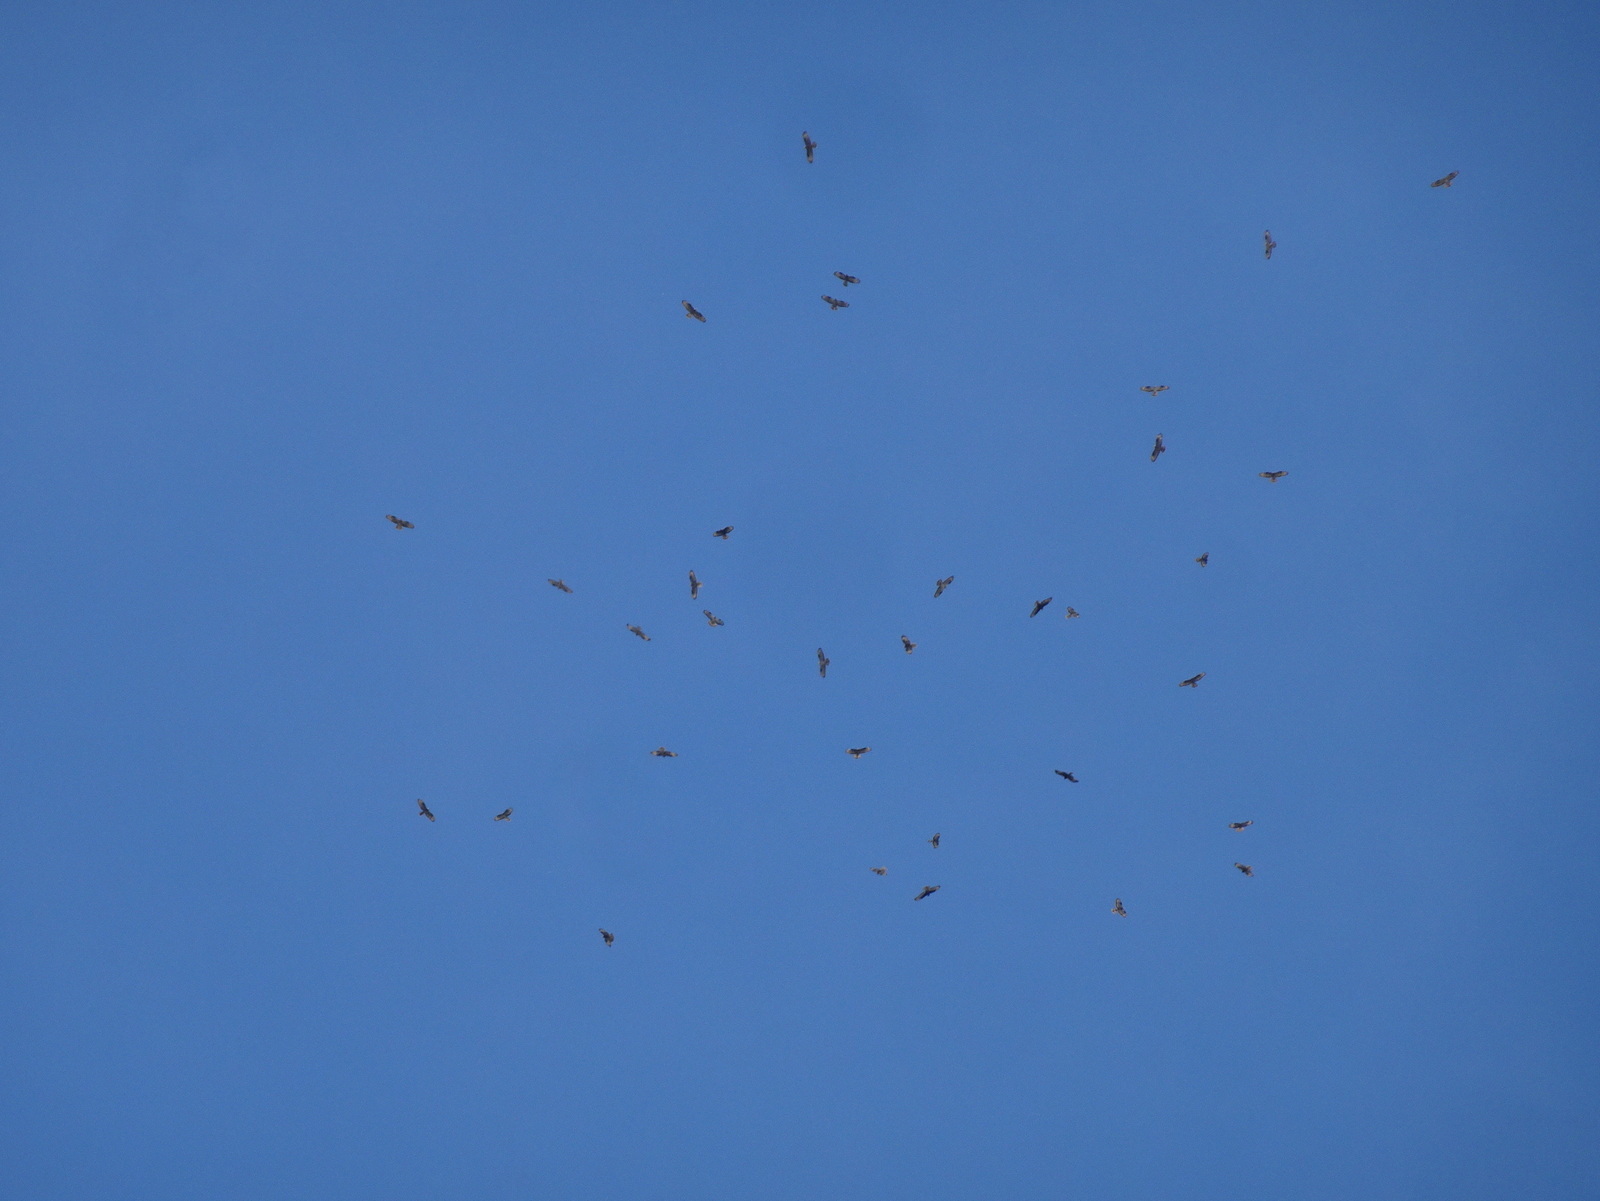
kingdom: Animalia
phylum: Chordata
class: Aves
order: Accipitriformes
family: Accipitridae
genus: Pernis
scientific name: Pernis apivorus
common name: European honey buzzard
